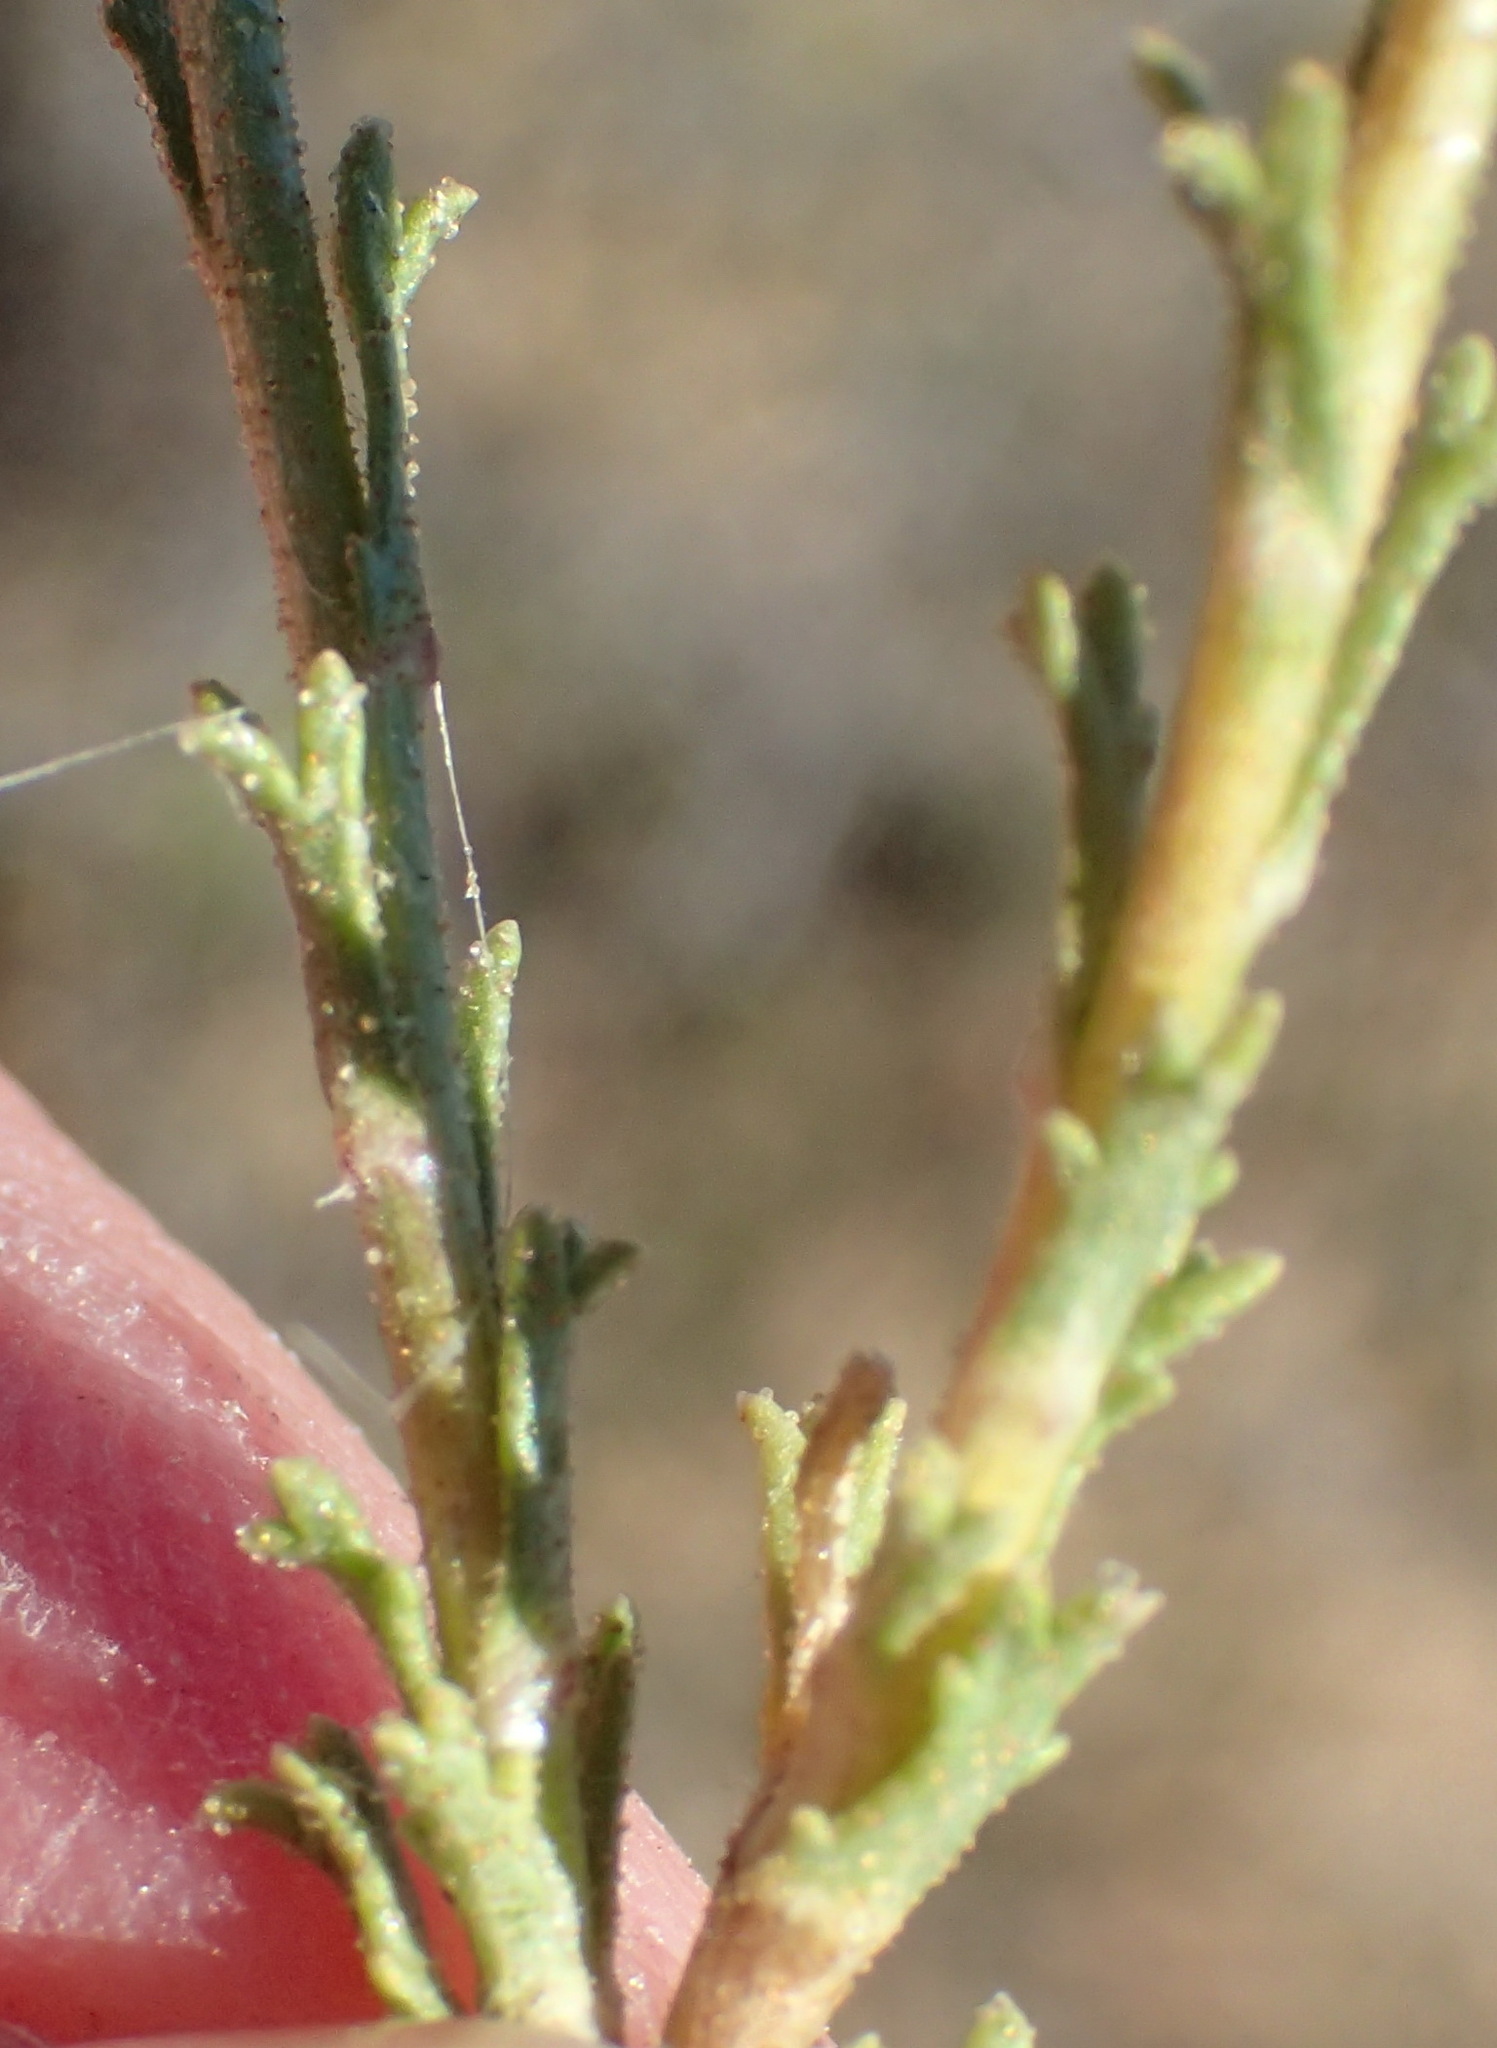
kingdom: Plantae
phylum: Tracheophyta
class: Magnoliopsida
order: Asterales
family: Asteraceae
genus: Osteospermum
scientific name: Osteospermum leptolobum
